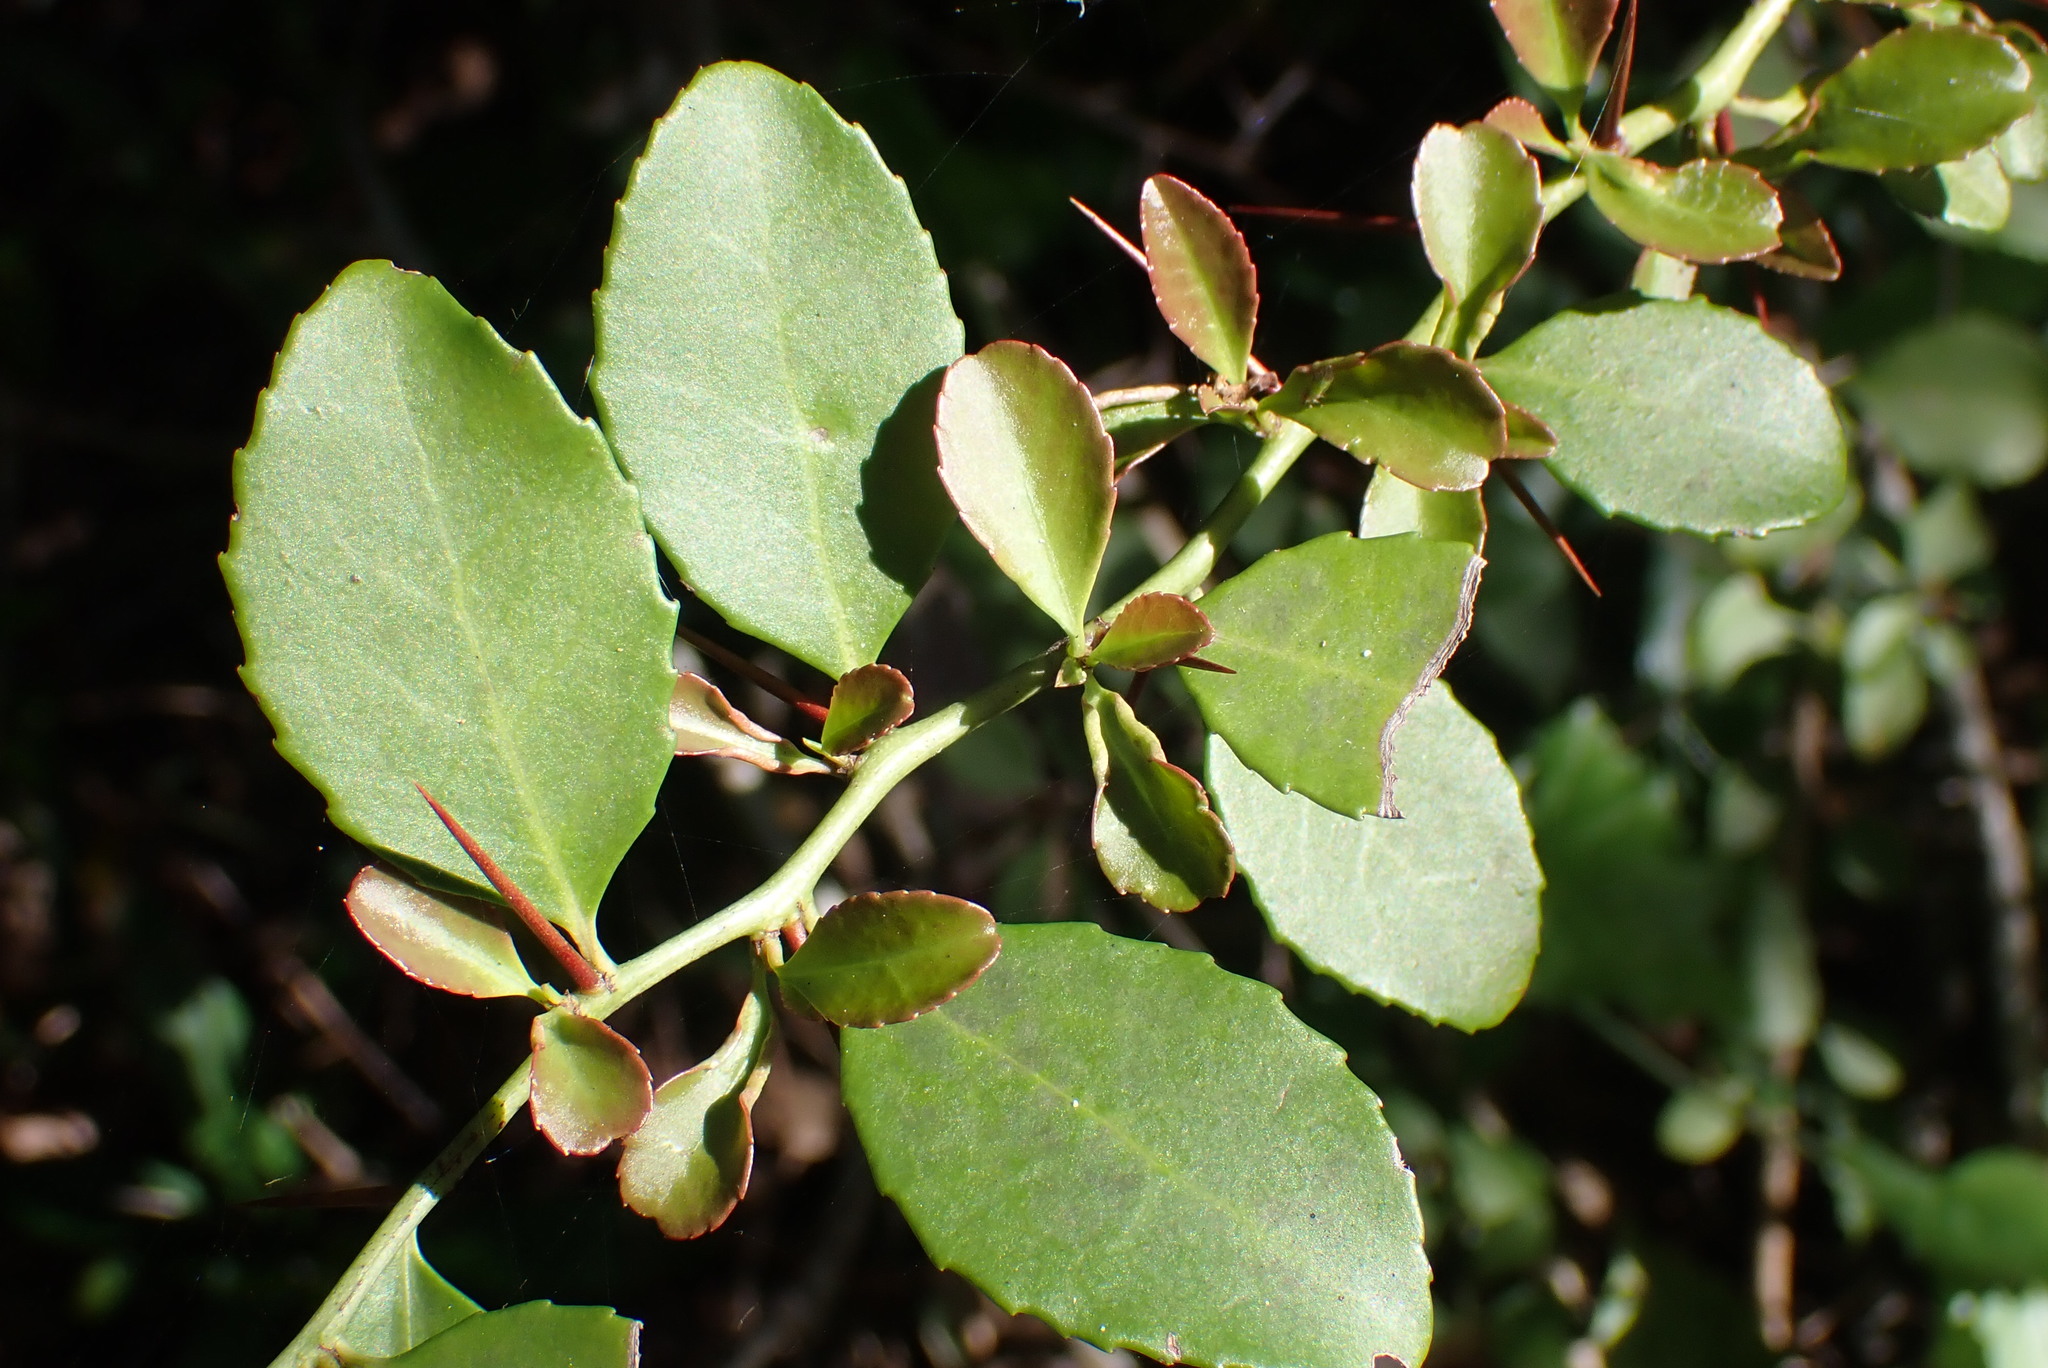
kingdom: Plantae
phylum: Tracheophyta
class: Magnoliopsida
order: Celastrales
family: Celastraceae
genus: Gymnosporia
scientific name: Gymnosporia nemorosa
